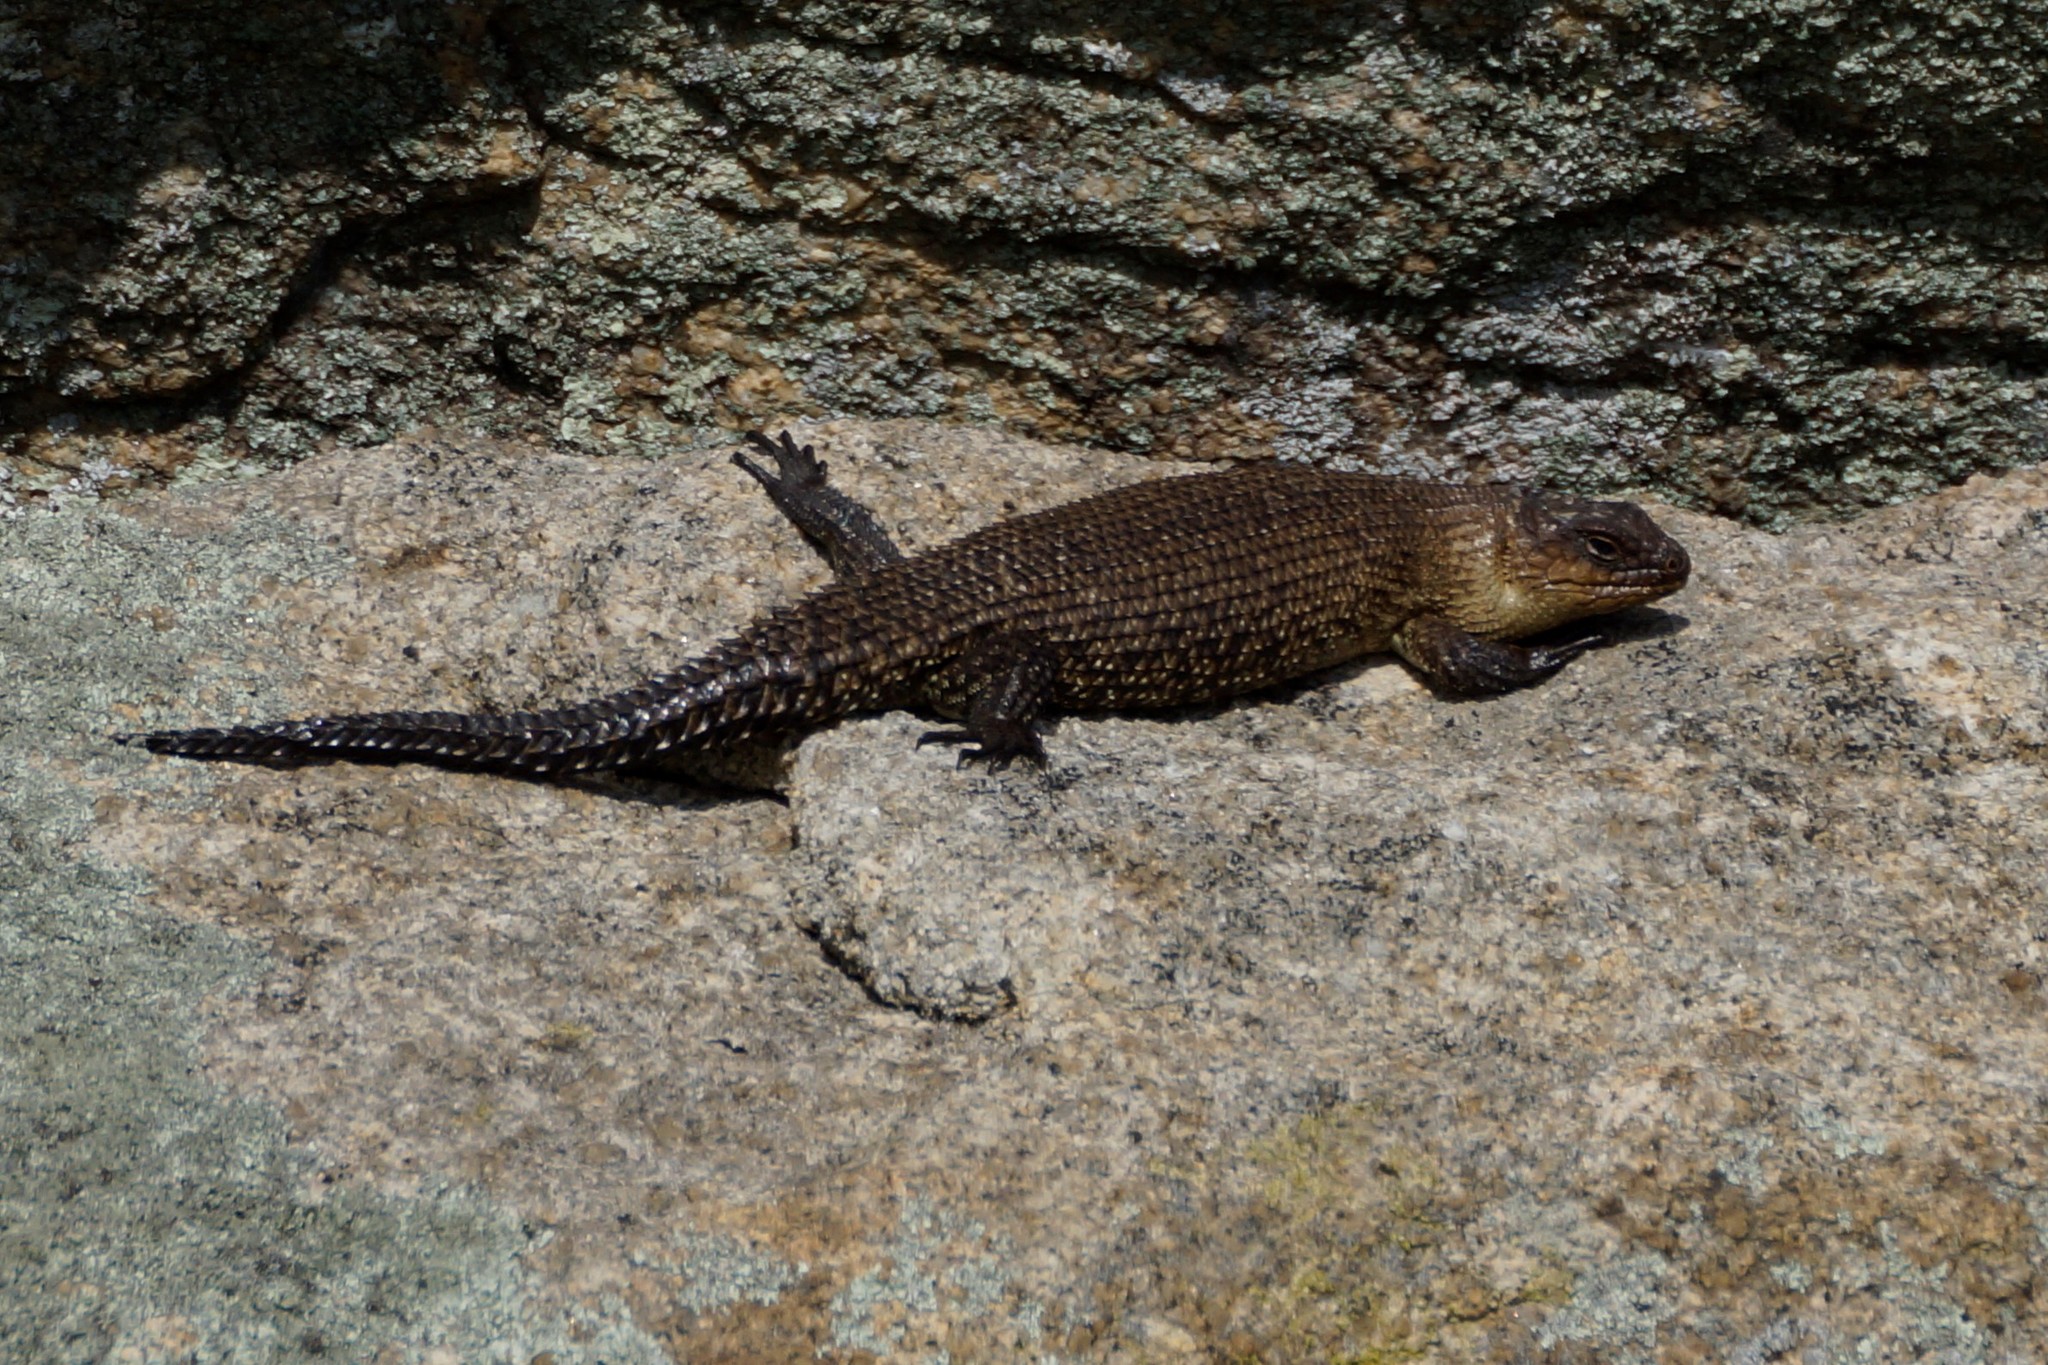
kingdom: Animalia
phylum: Chordata
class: Squamata
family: Scincidae
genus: Egernia
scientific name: Egernia cunninghami
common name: Cunningham's skink
